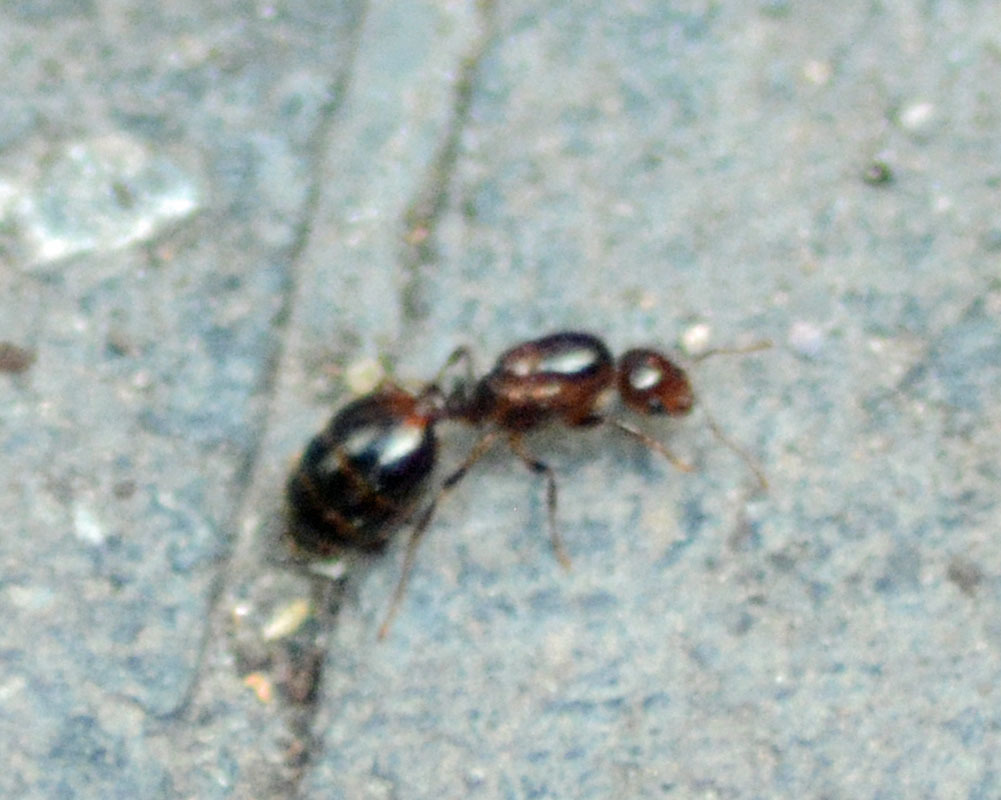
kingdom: Animalia
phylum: Arthropoda
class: Insecta
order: Hymenoptera
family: Formicidae
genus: Solenopsis
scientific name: Solenopsis invicta
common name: Red imported fire ant
